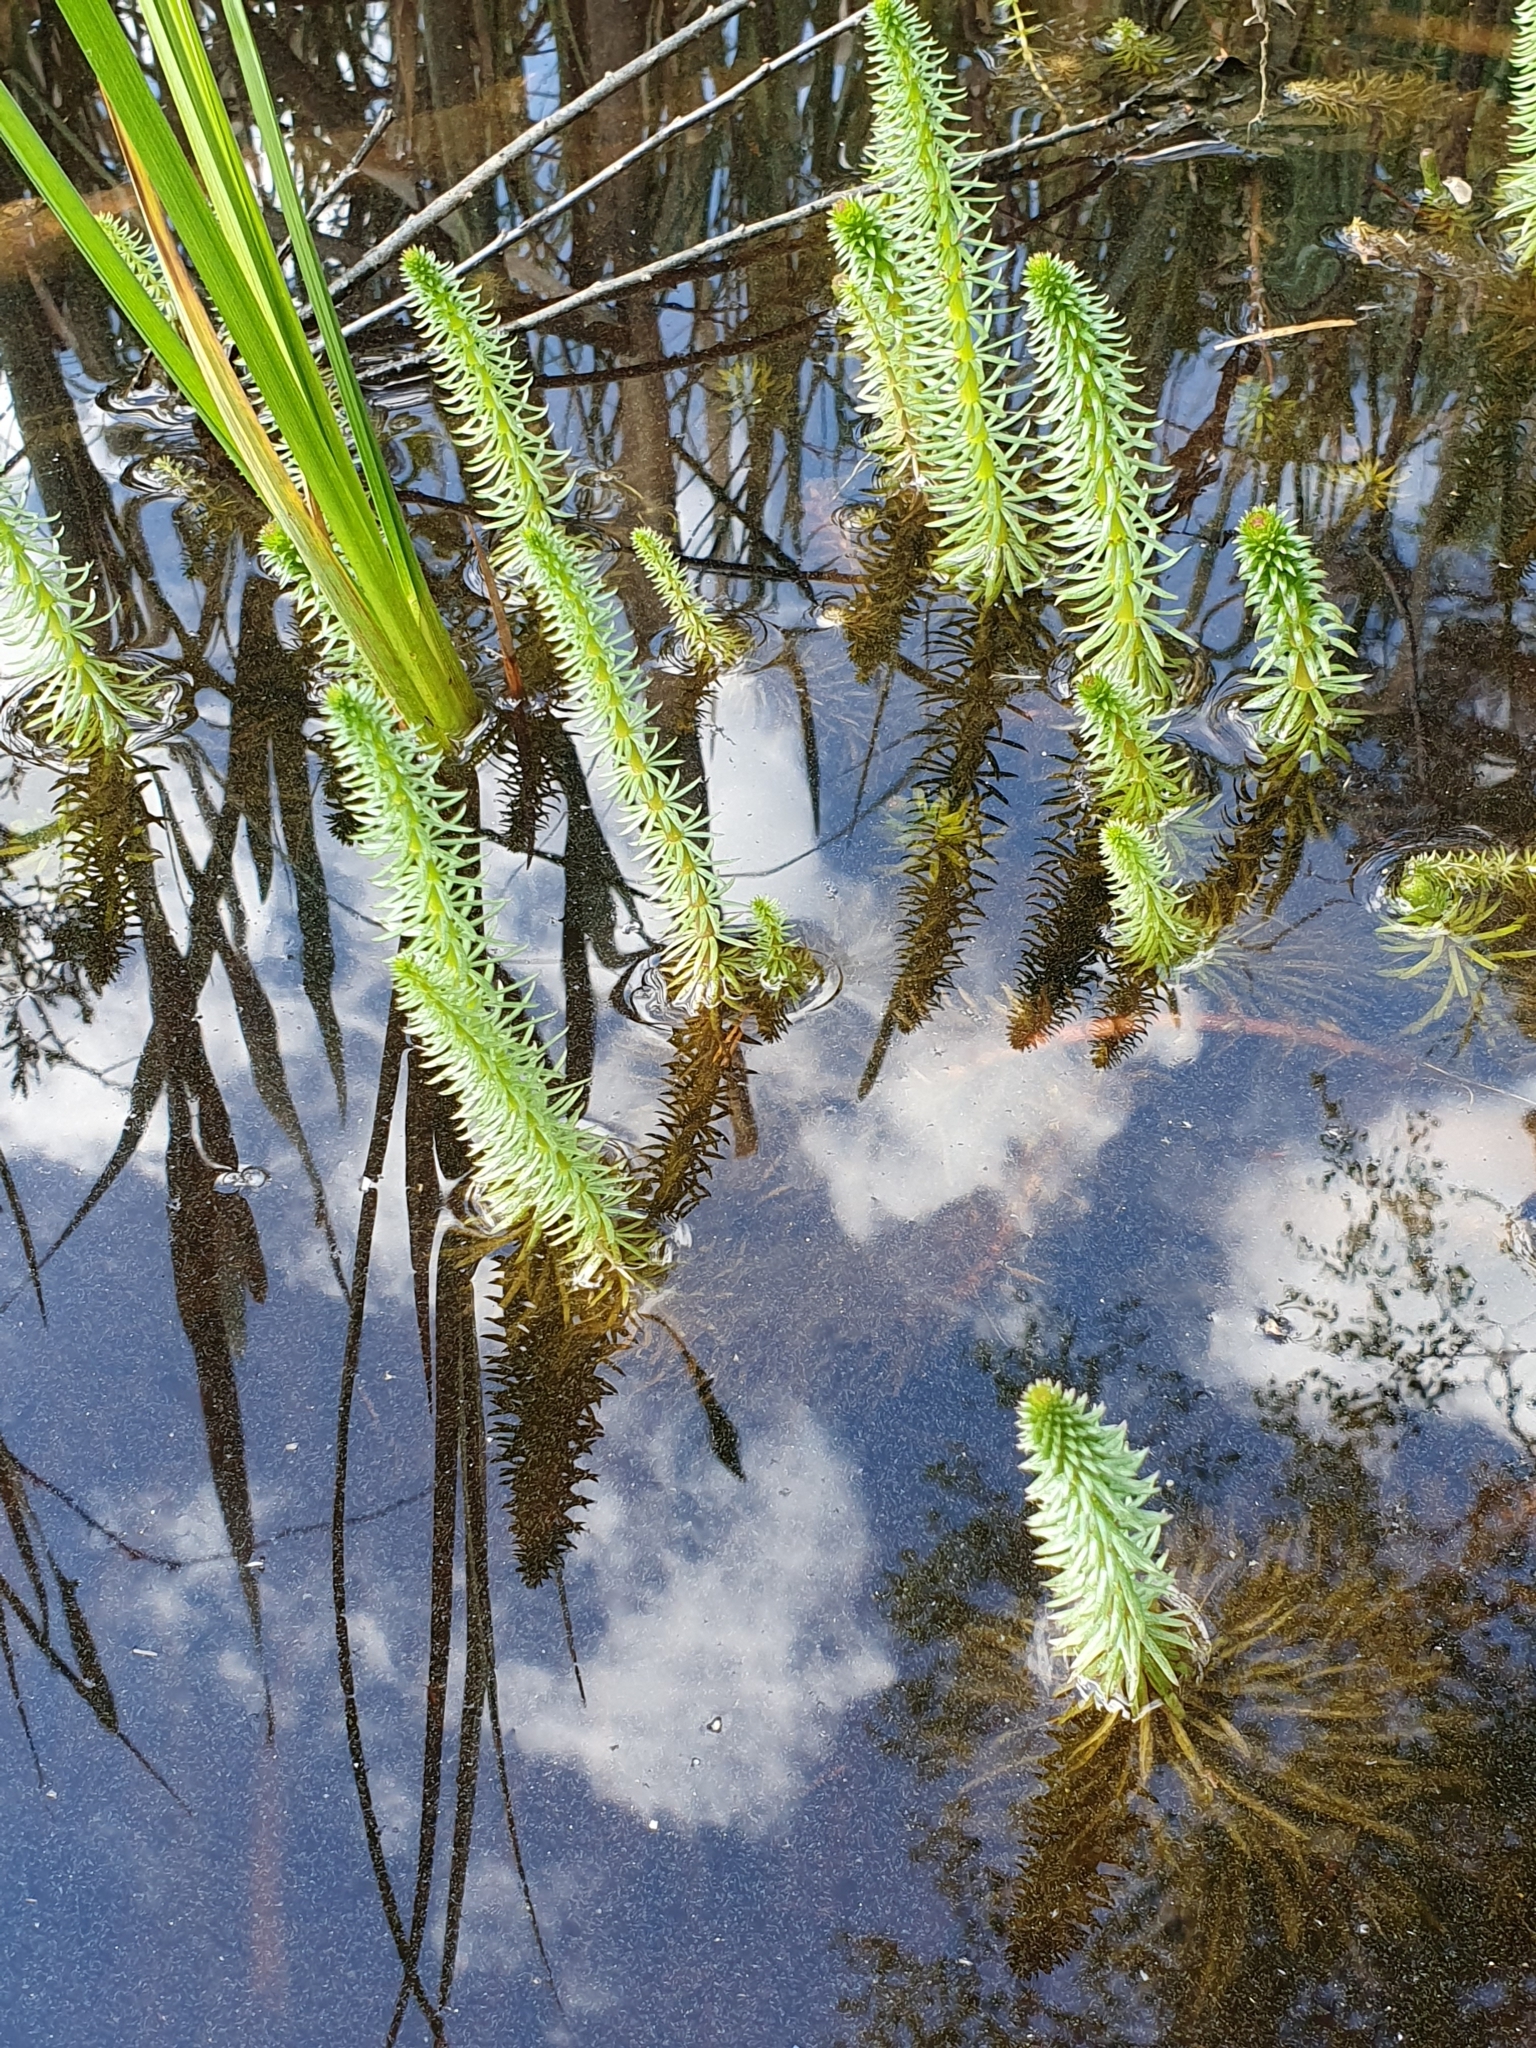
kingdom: Plantae
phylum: Tracheophyta
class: Magnoliopsida
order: Lamiales
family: Plantaginaceae
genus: Hippuris
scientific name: Hippuris vulgaris
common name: Mare's-tail
